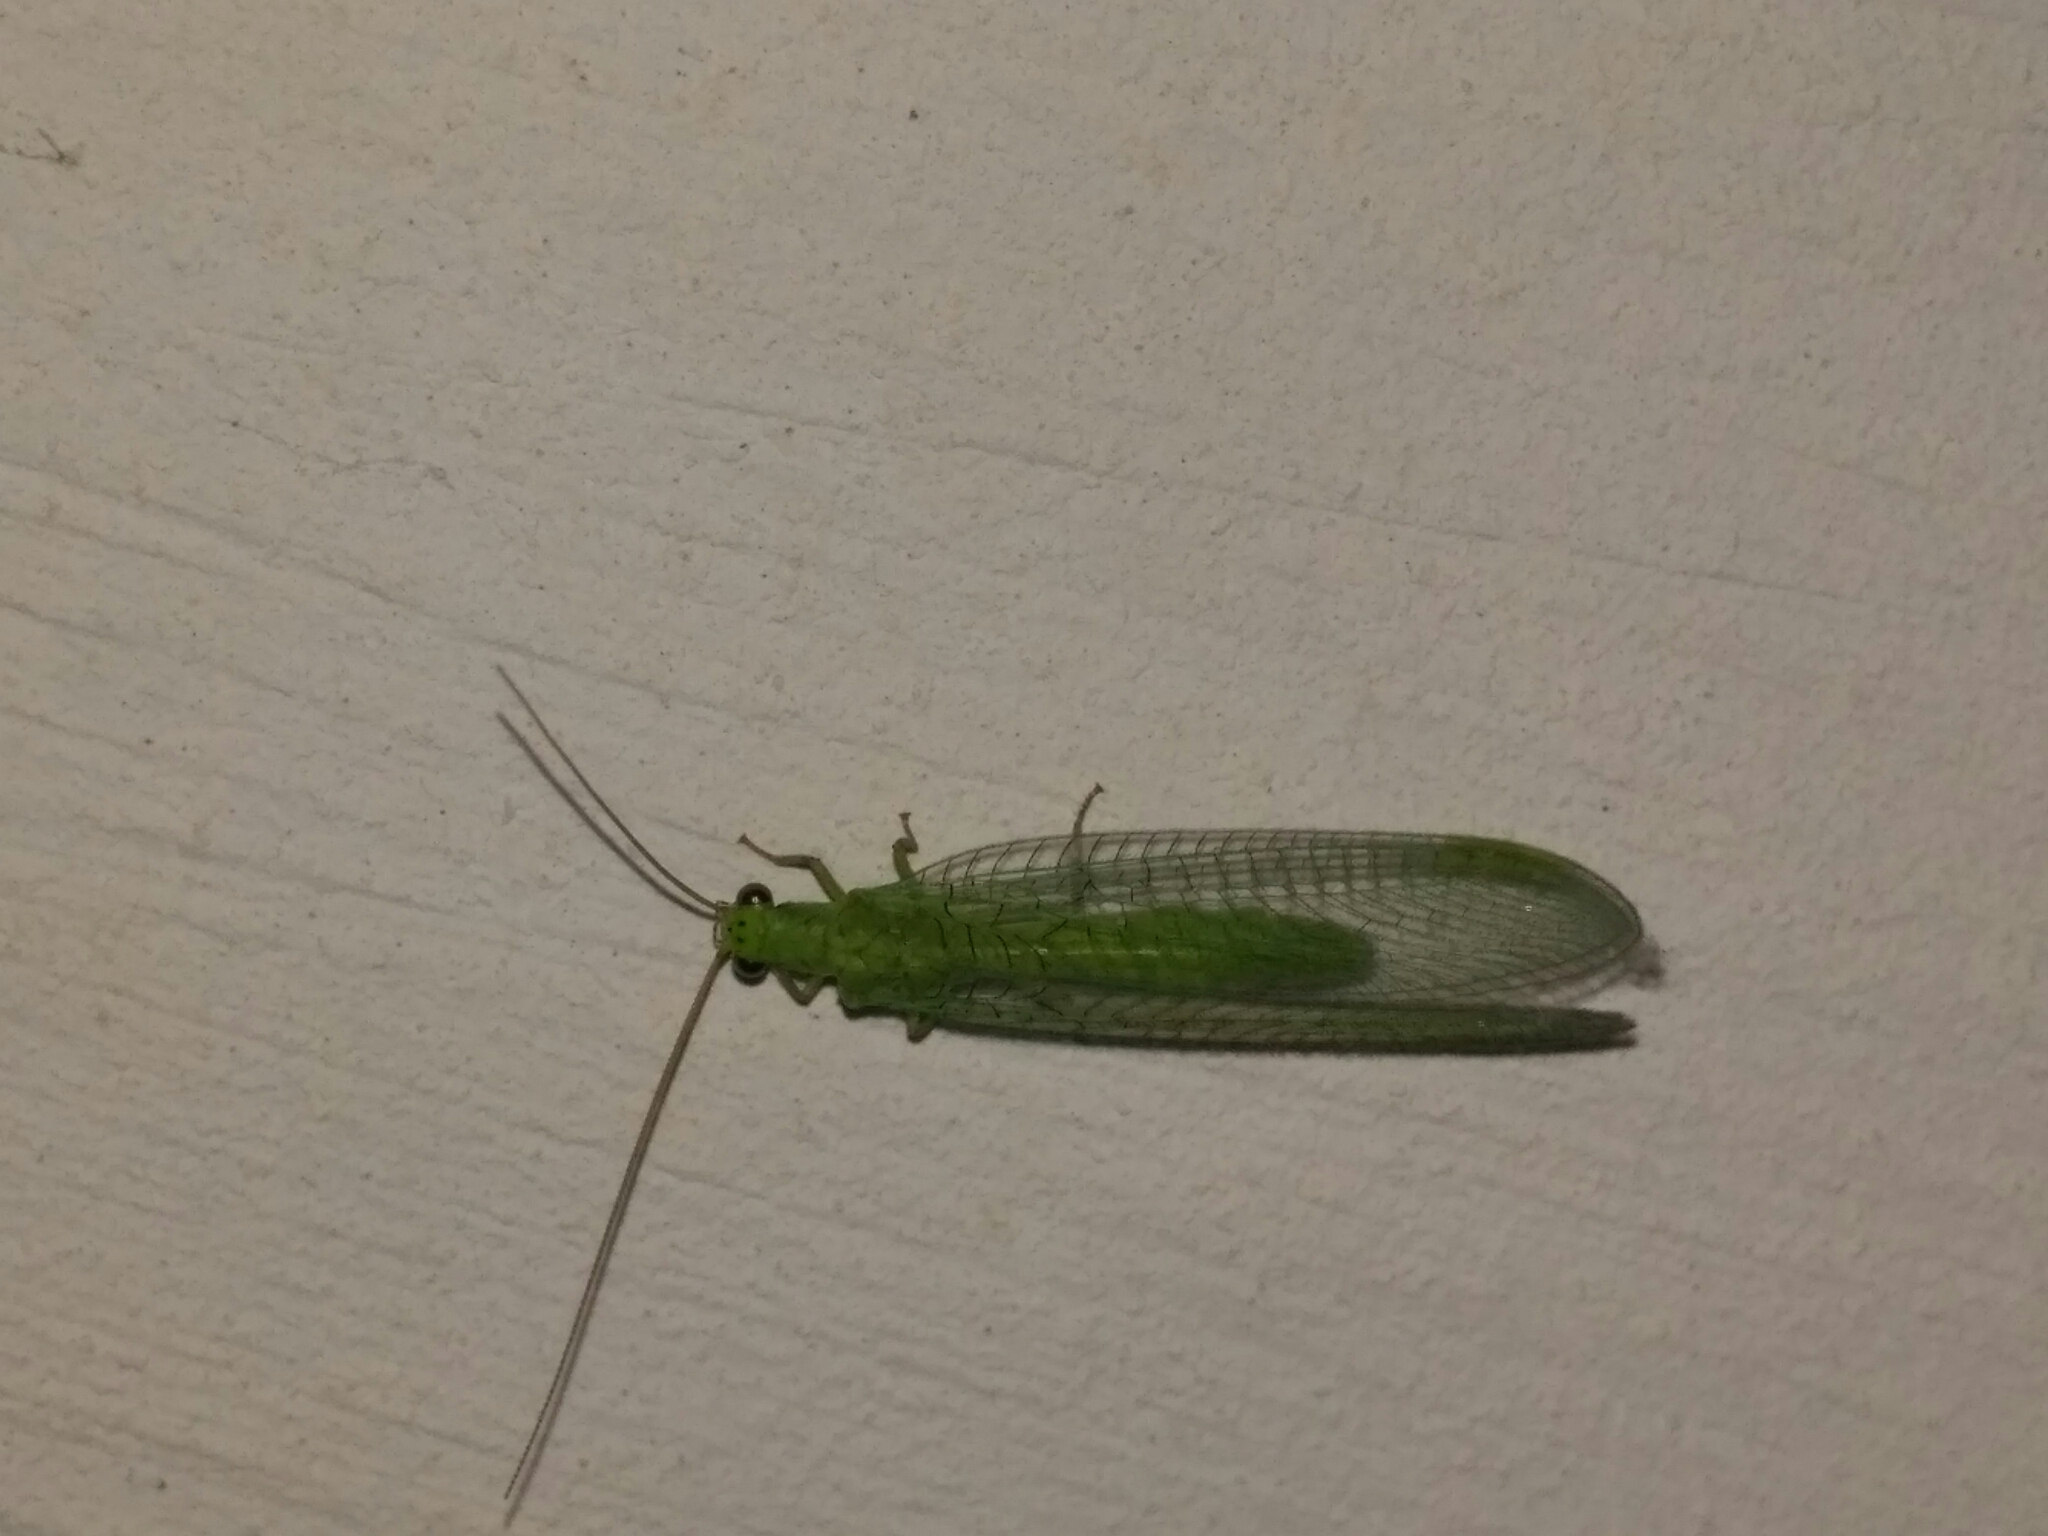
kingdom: Animalia
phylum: Arthropoda
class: Insecta
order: Neuroptera
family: Chrysopidae
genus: Chrysopa
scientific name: Chrysopa formosa
